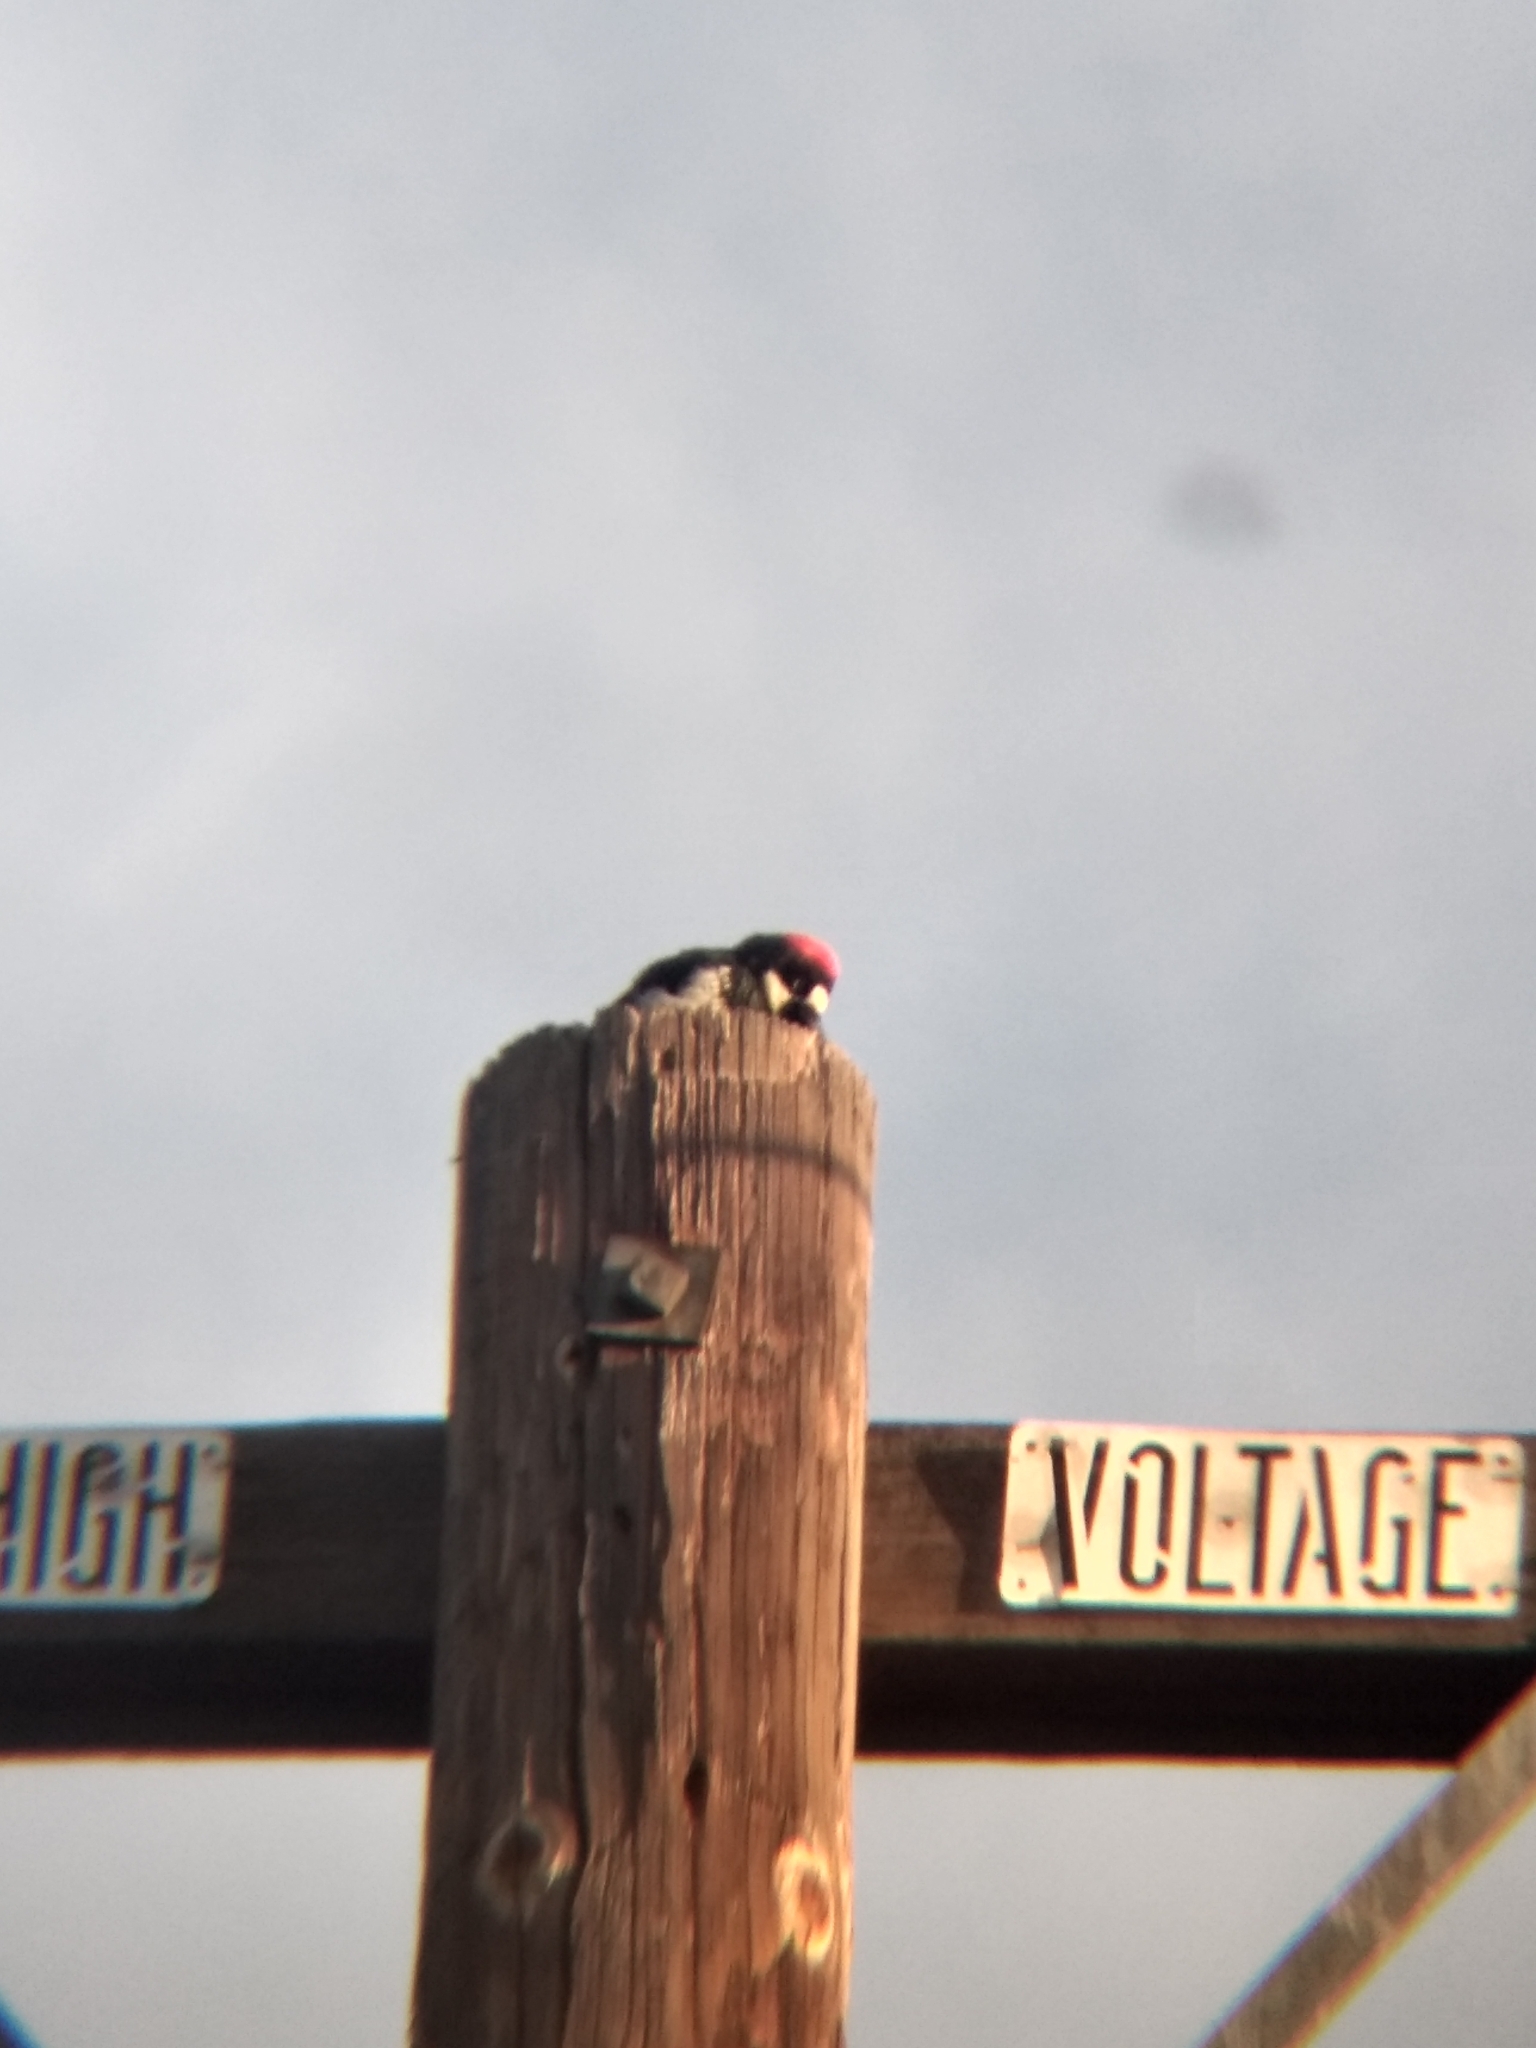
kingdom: Animalia
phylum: Chordata
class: Aves
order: Piciformes
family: Picidae
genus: Melanerpes
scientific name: Melanerpes formicivorus
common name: Acorn woodpecker
